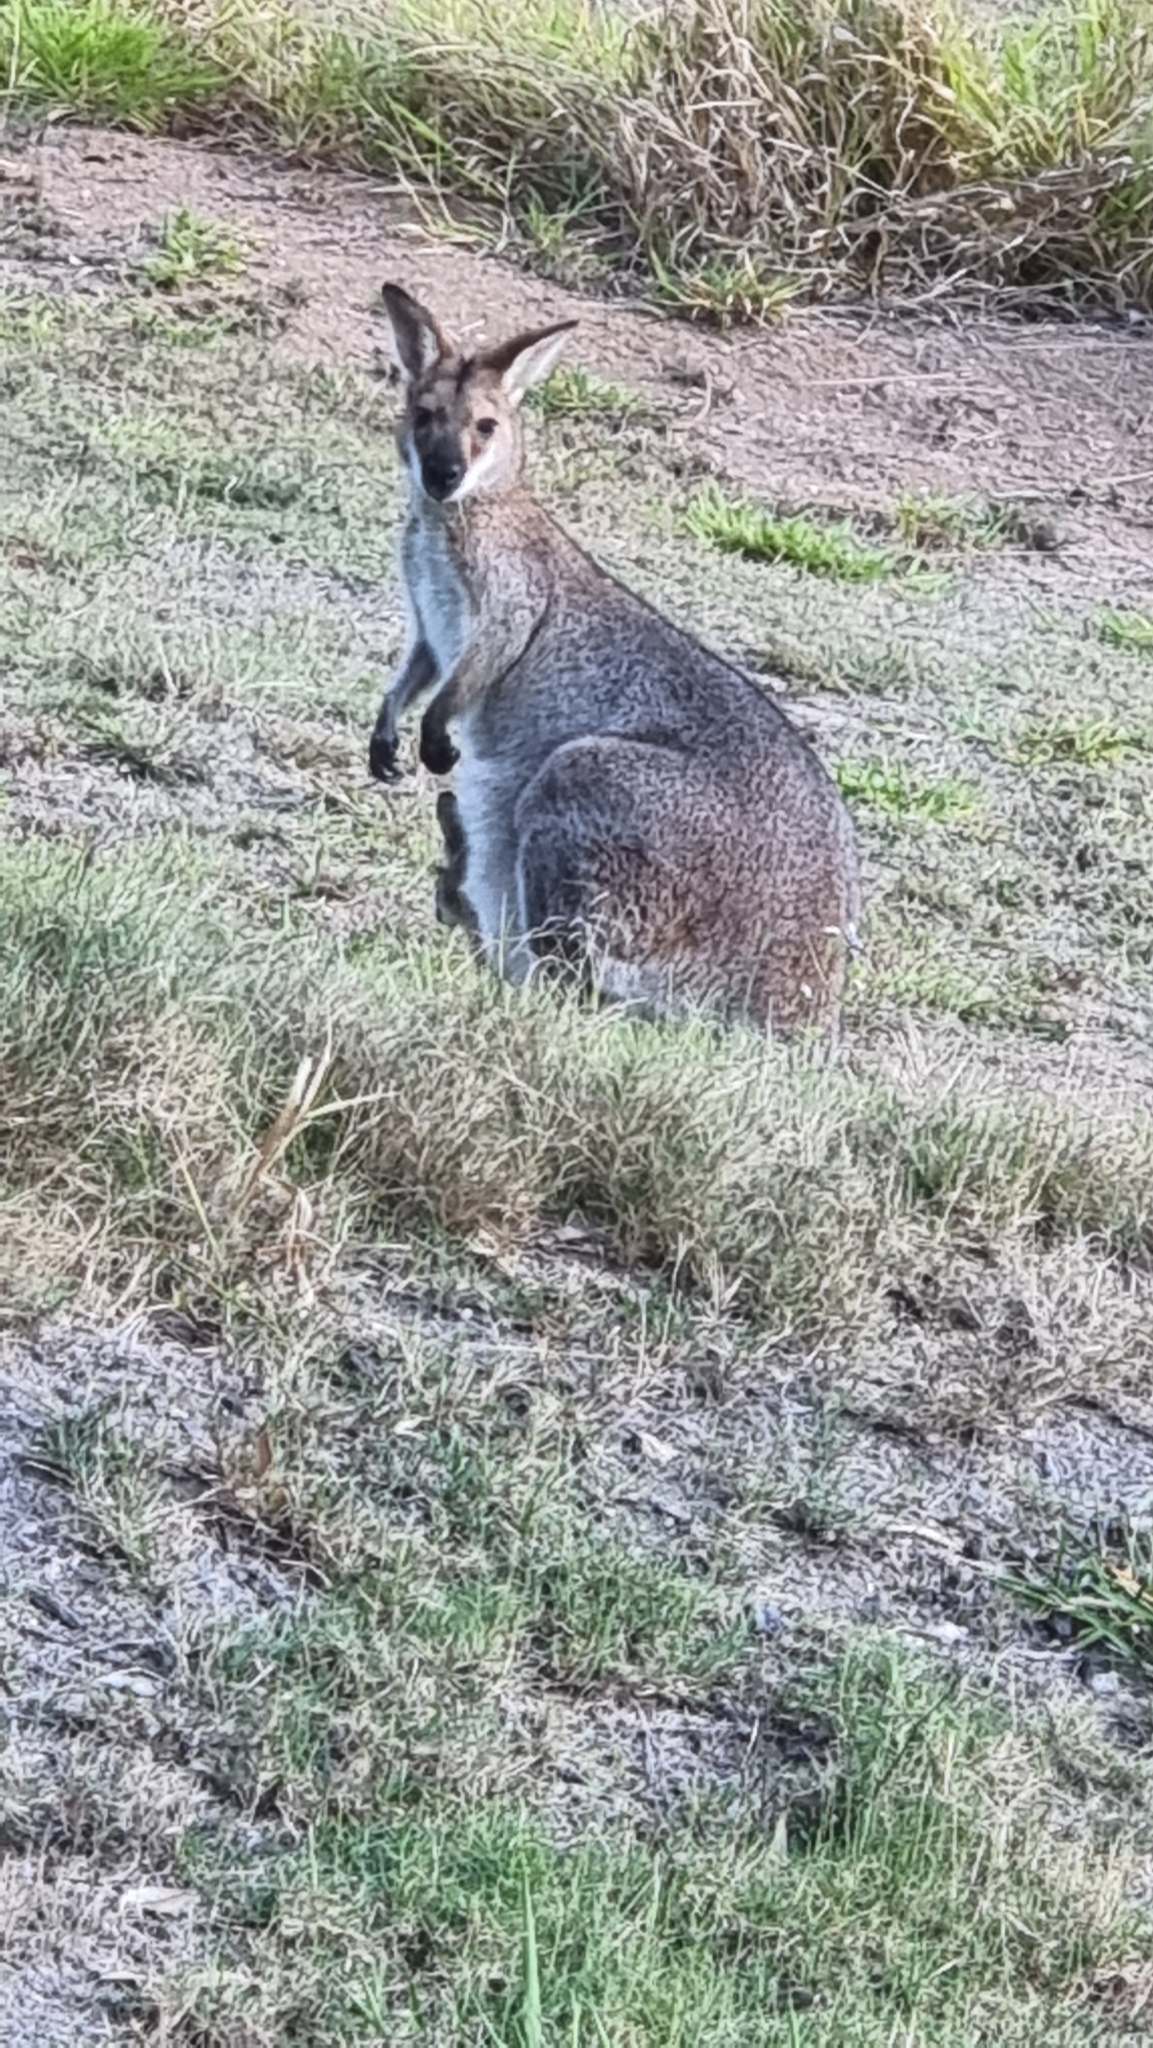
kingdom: Animalia
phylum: Chordata
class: Mammalia
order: Diprotodontia
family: Macropodidae
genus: Notamacropus
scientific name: Notamacropus rufogriseus
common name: Red-necked wallaby
